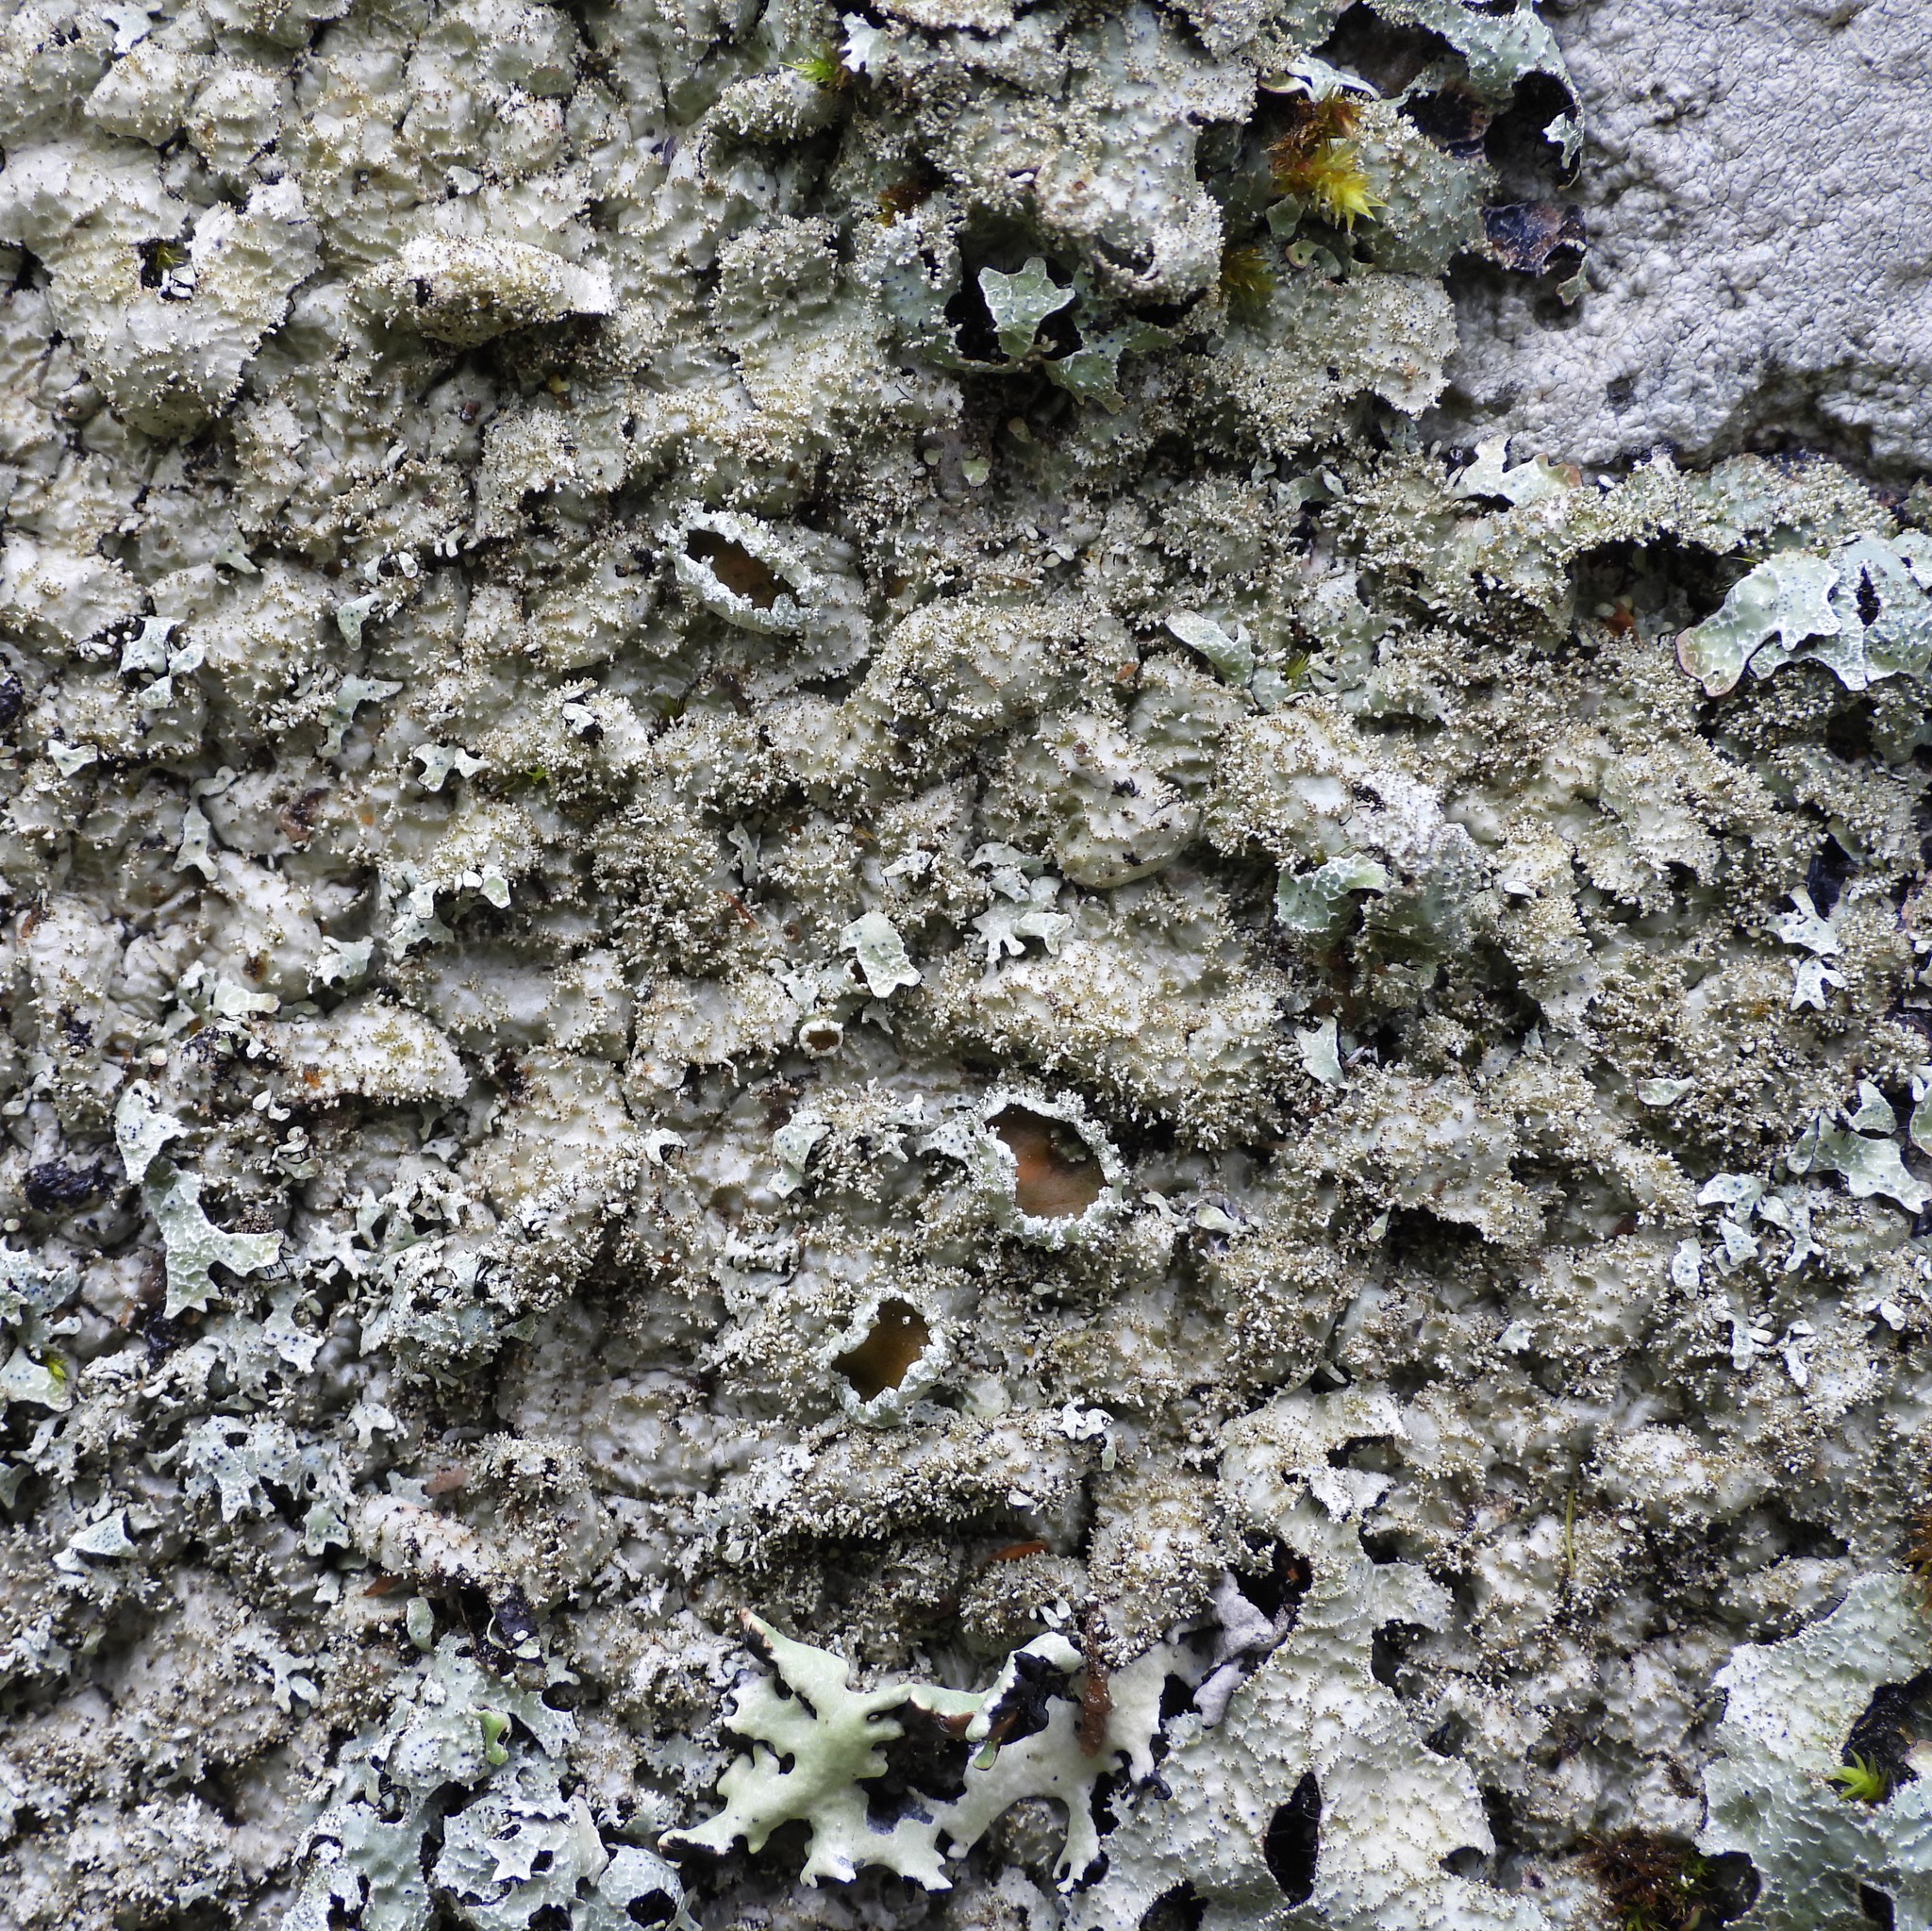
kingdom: Fungi
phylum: Ascomycota
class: Lecanoromycetes
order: Lecanorales
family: Parmeliaceae
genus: Parmelia
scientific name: Parmelia saxatilis
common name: Salted shield lichen
